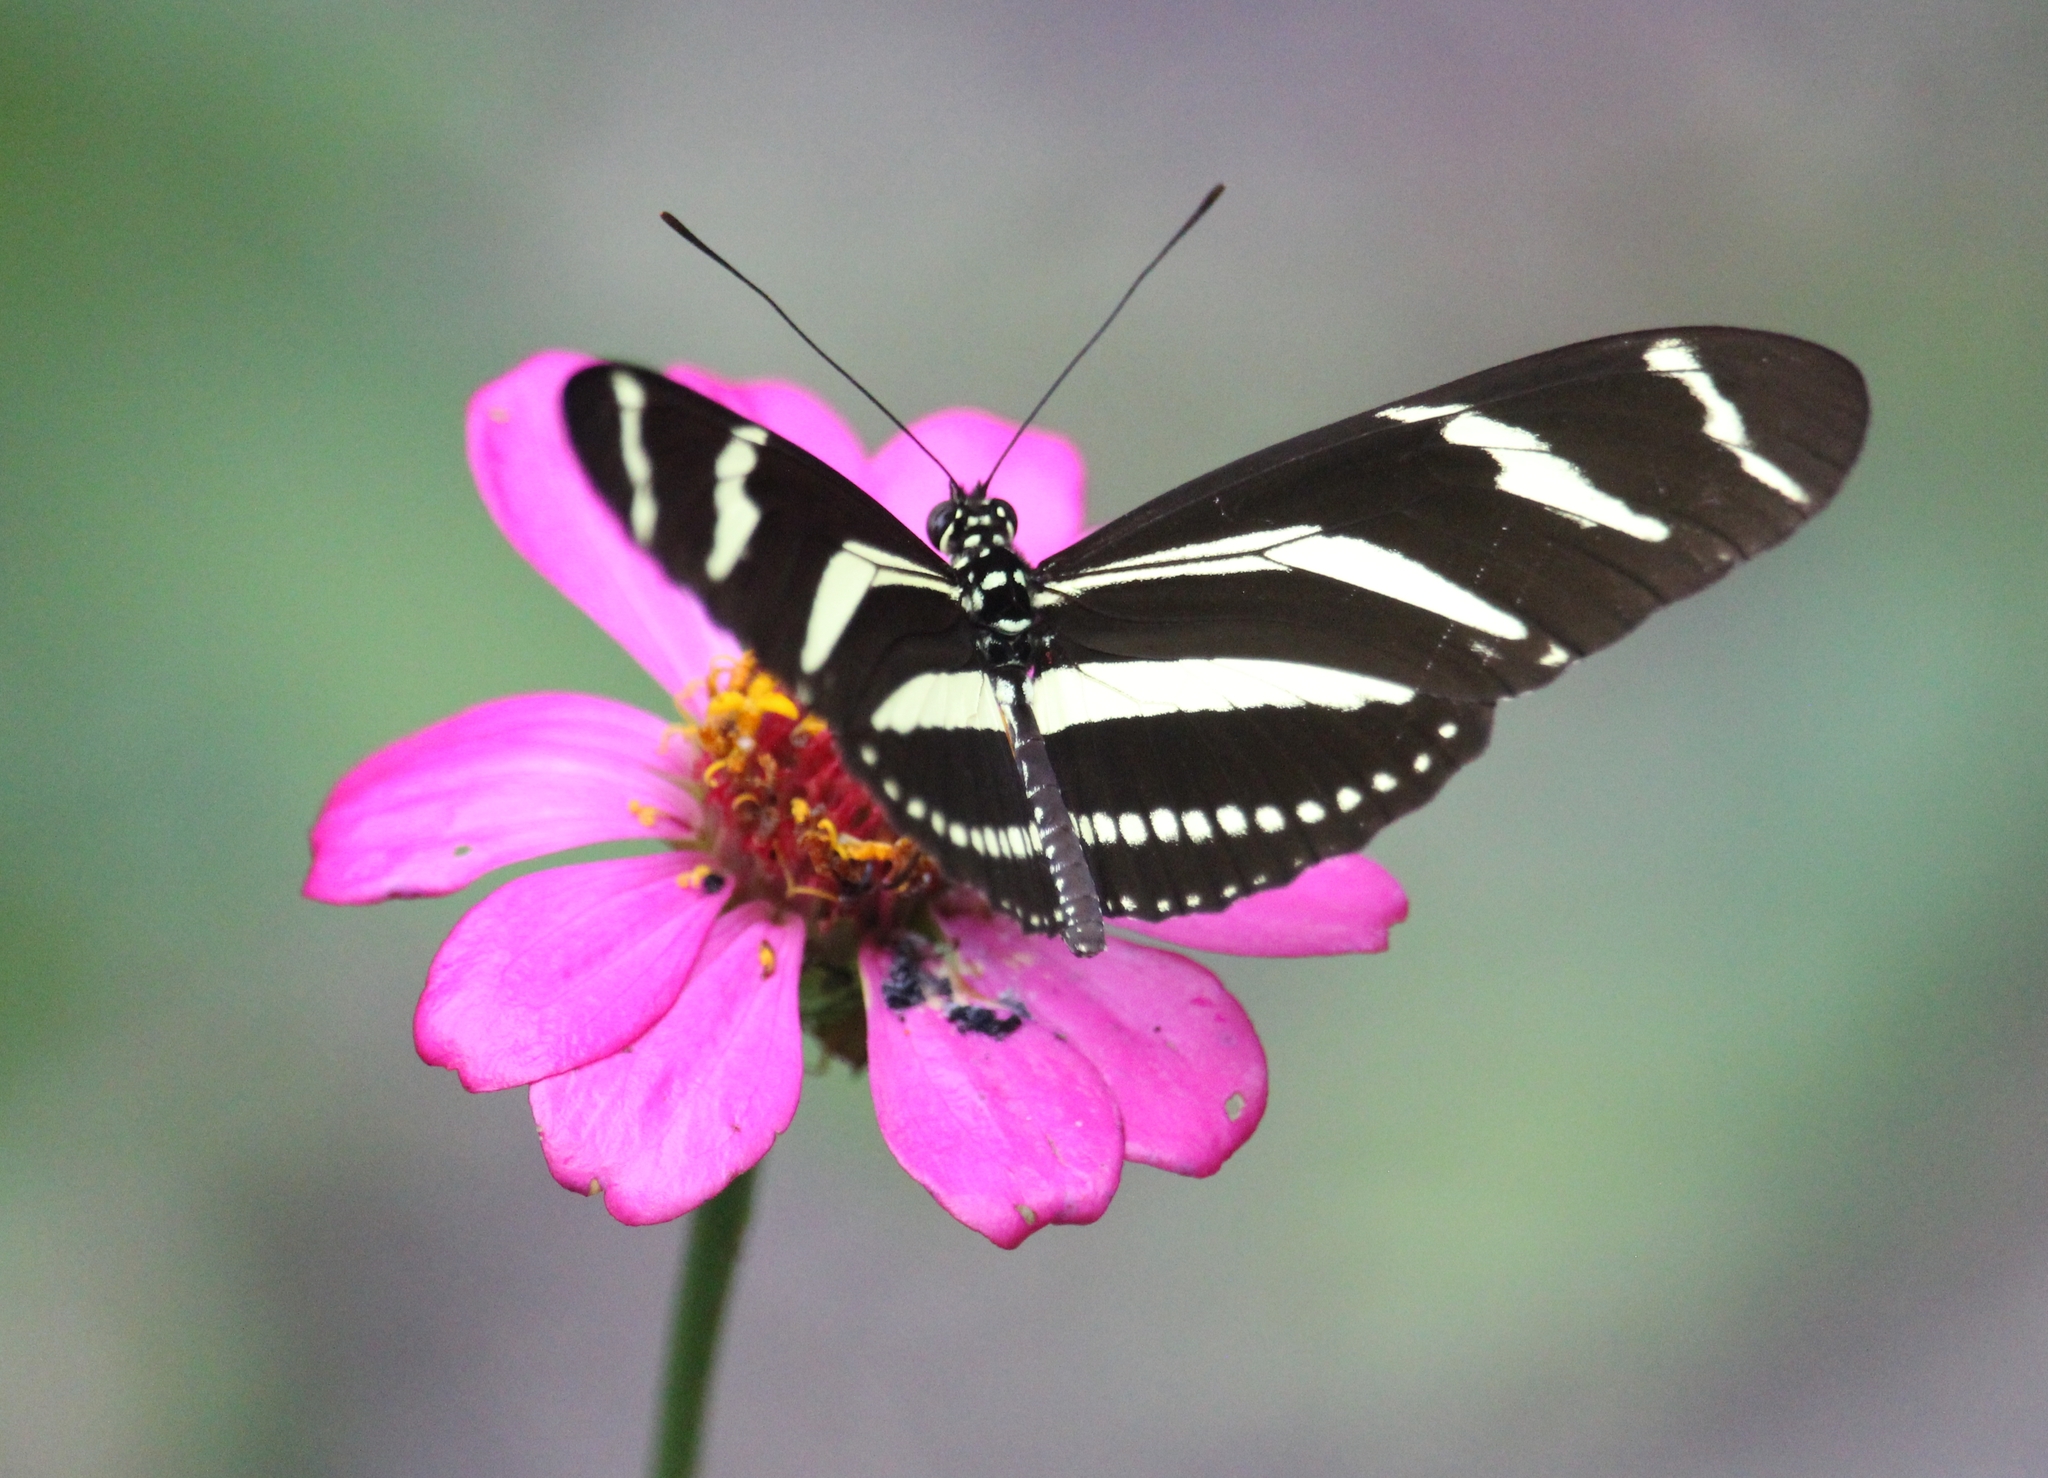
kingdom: Animalia
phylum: Arthropoda
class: Insecta
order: Lepidoptera
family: Nymphalidae
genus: Heliconius
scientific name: Heliconius charithonia
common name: Zebra long wing
